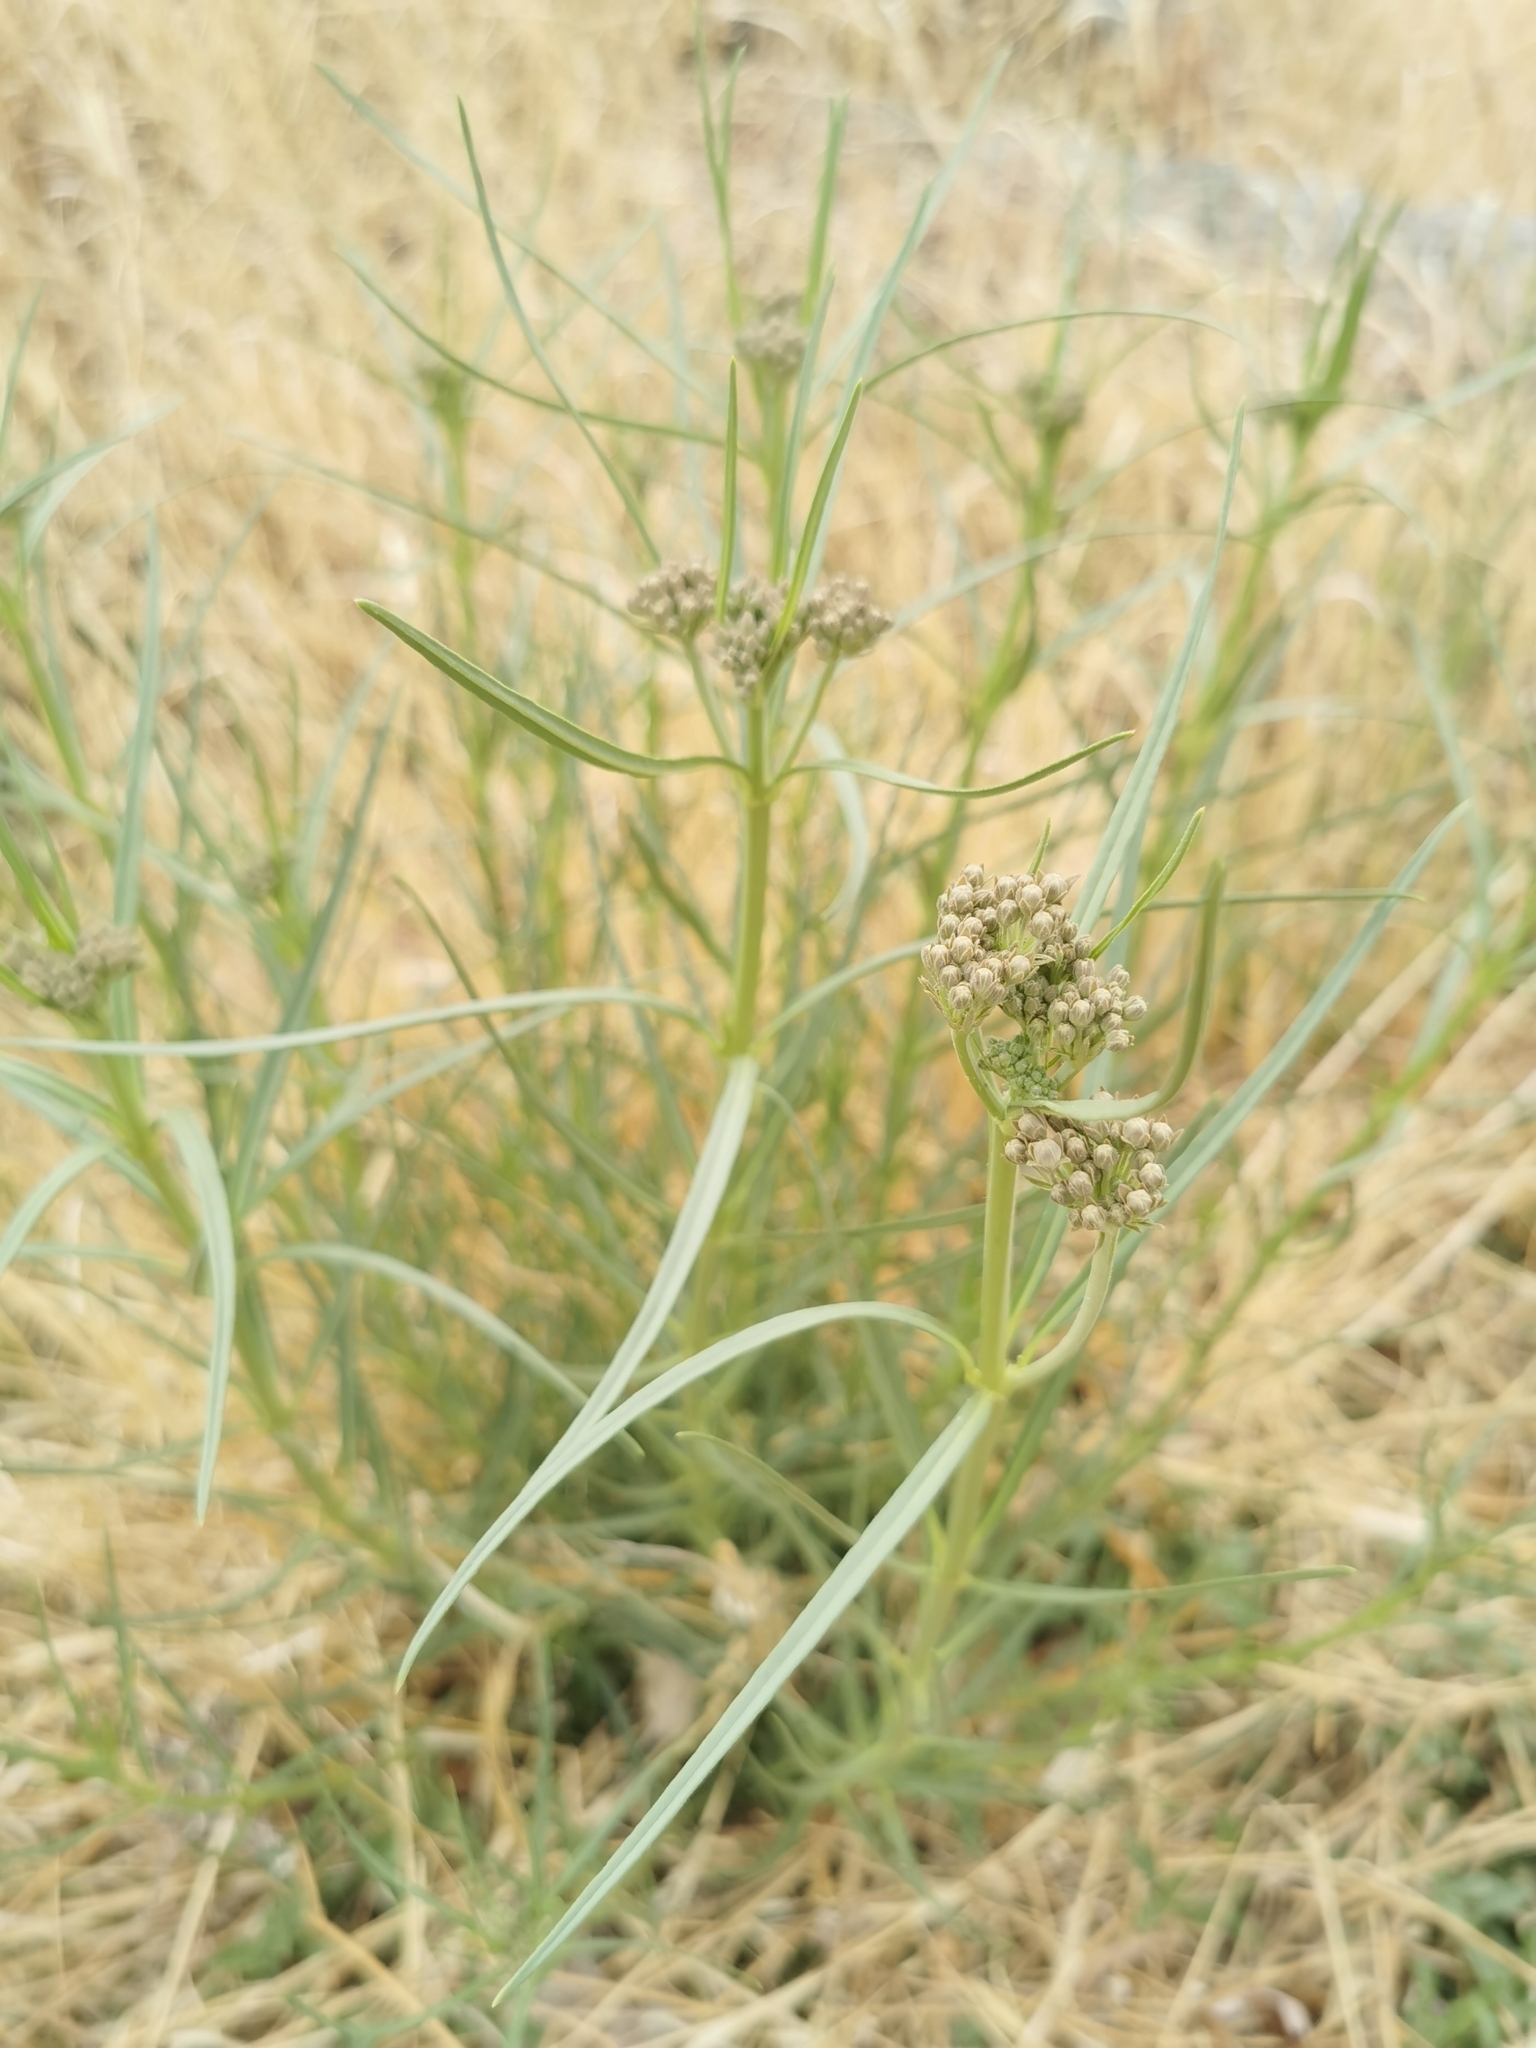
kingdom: Plantae
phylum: Tracheophyta
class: Magnoliopsida
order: Gentianales
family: Apocynaceae
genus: Asclepias
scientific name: Asclepias subverticillata
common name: Horsetail milkweed
